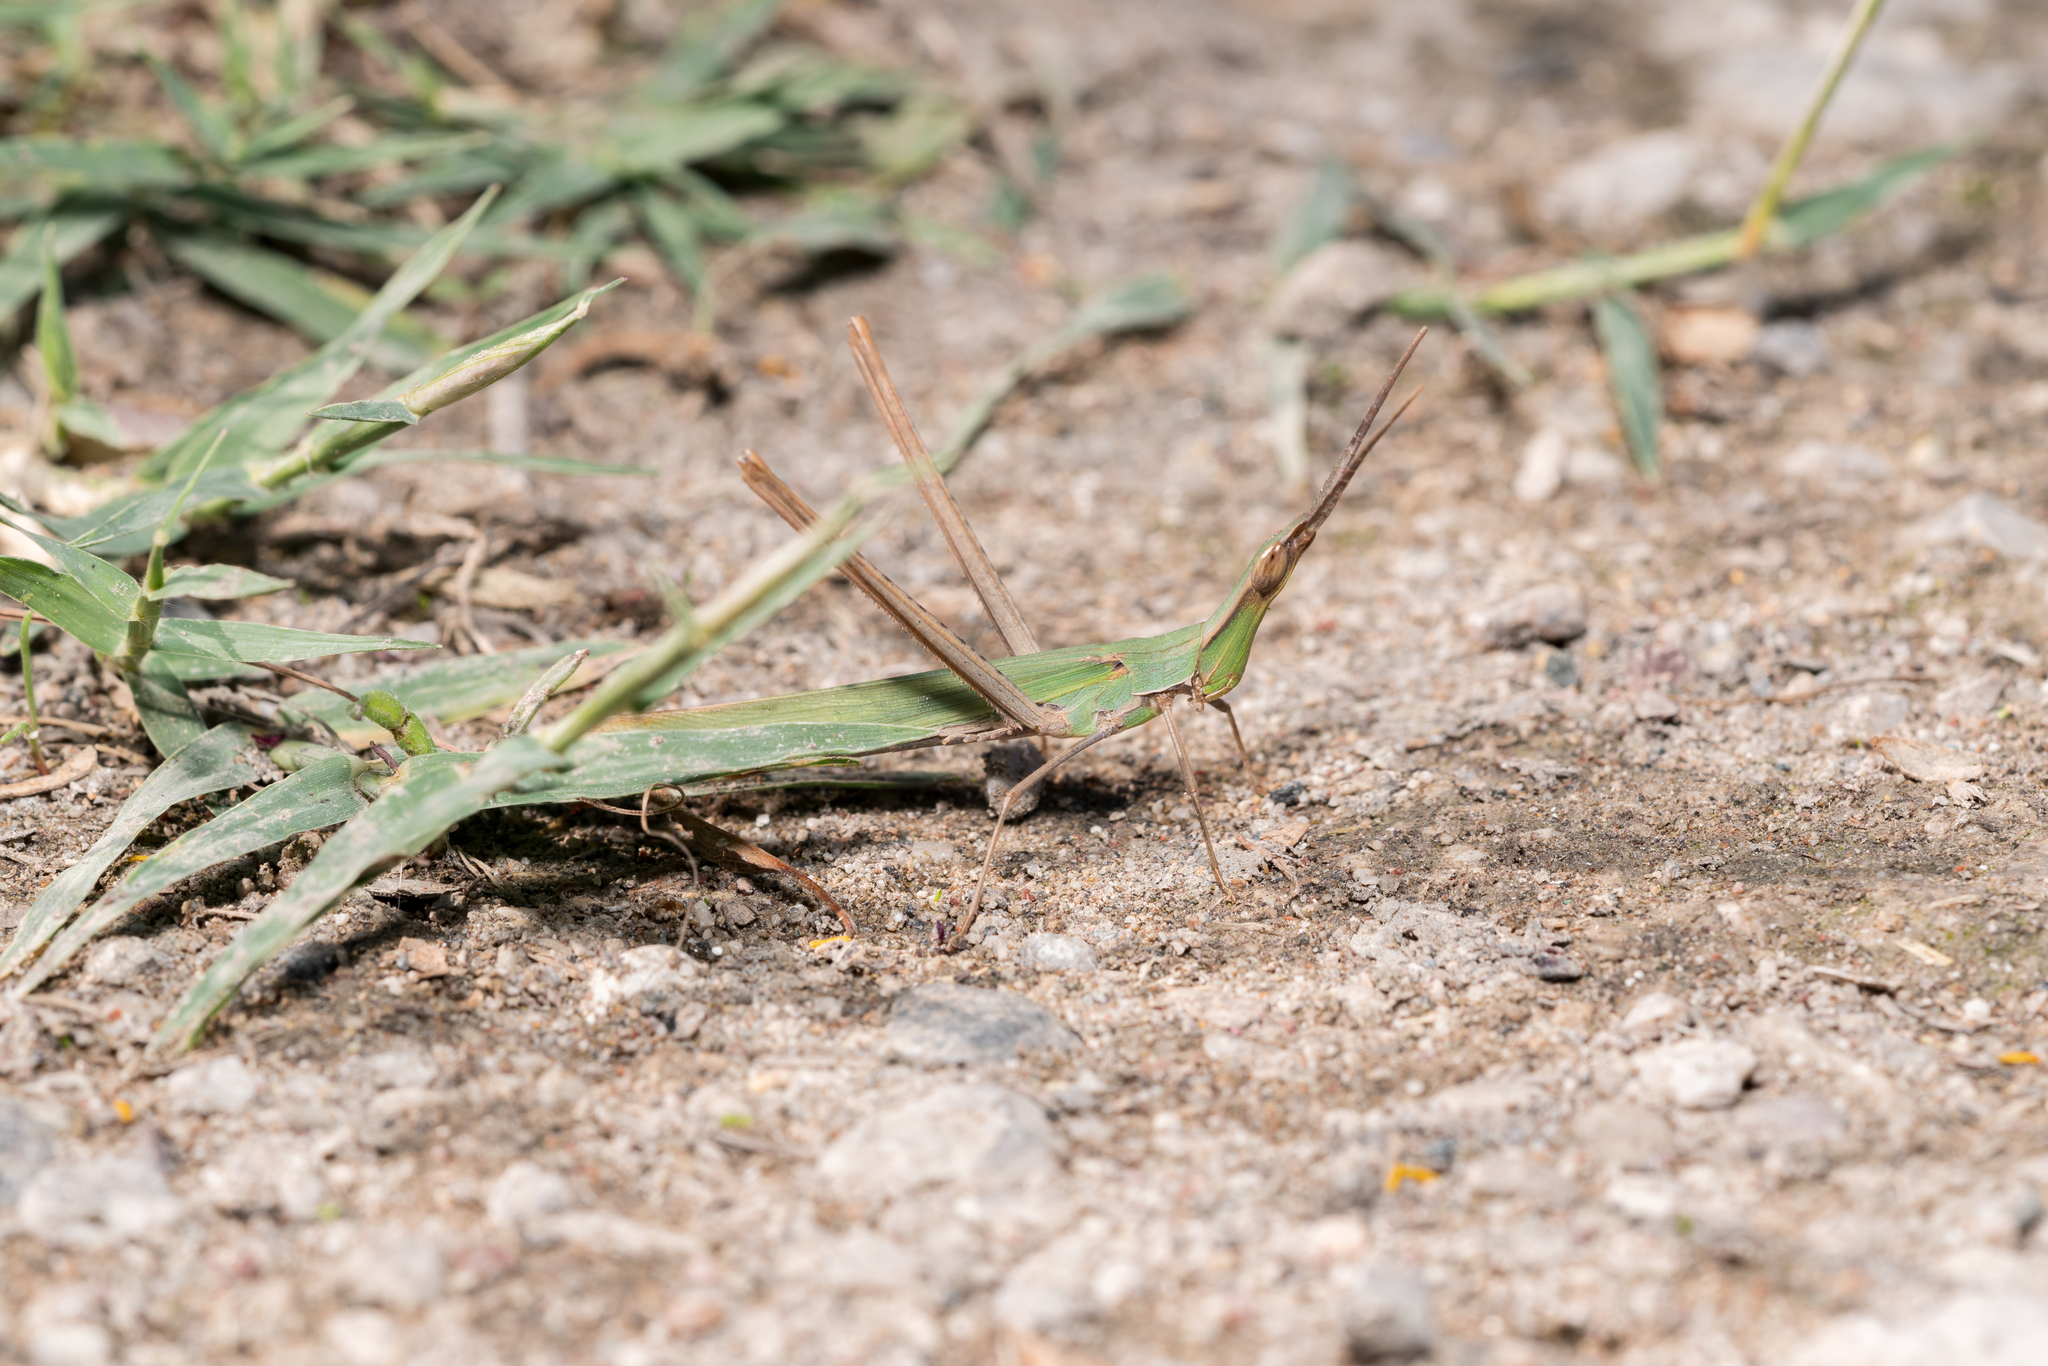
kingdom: Animalia
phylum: Arthropoda
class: Insecta
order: Orthoptera
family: Acrididae
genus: Acrida
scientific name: Acrida ungarica
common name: Common cone-headed grasshopper
